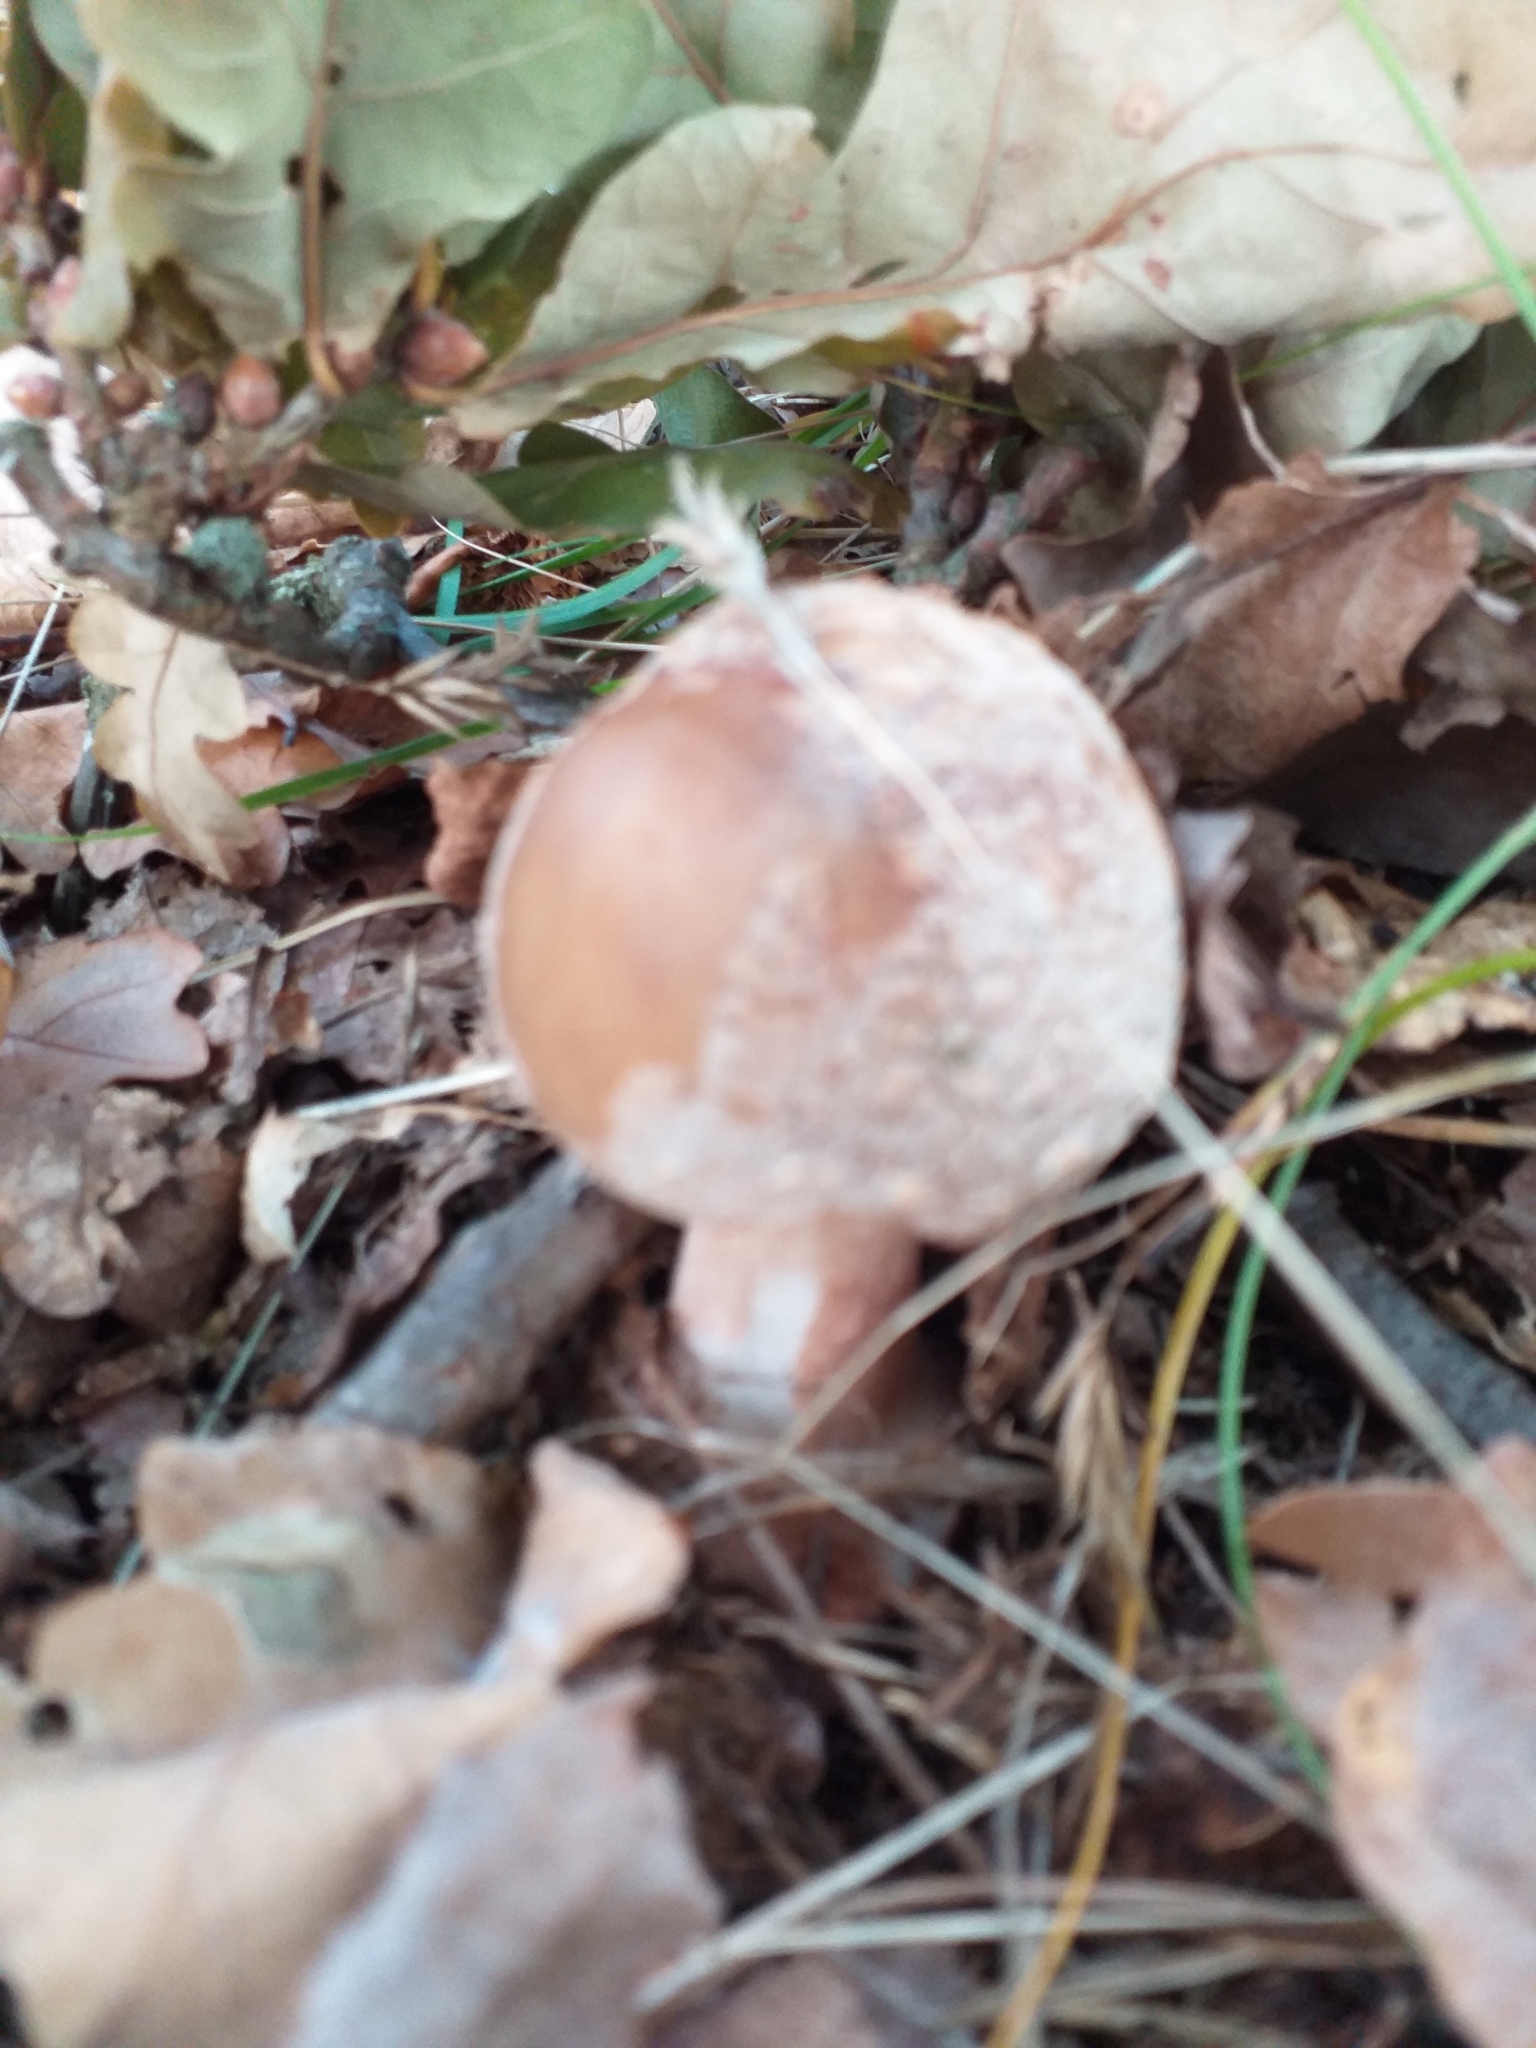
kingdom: Fungi
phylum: Basidiomycota
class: Agaricomycetes
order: Agaricales
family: Amanitaceae
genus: Amanita
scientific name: Amanita rubescens
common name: Blusher
